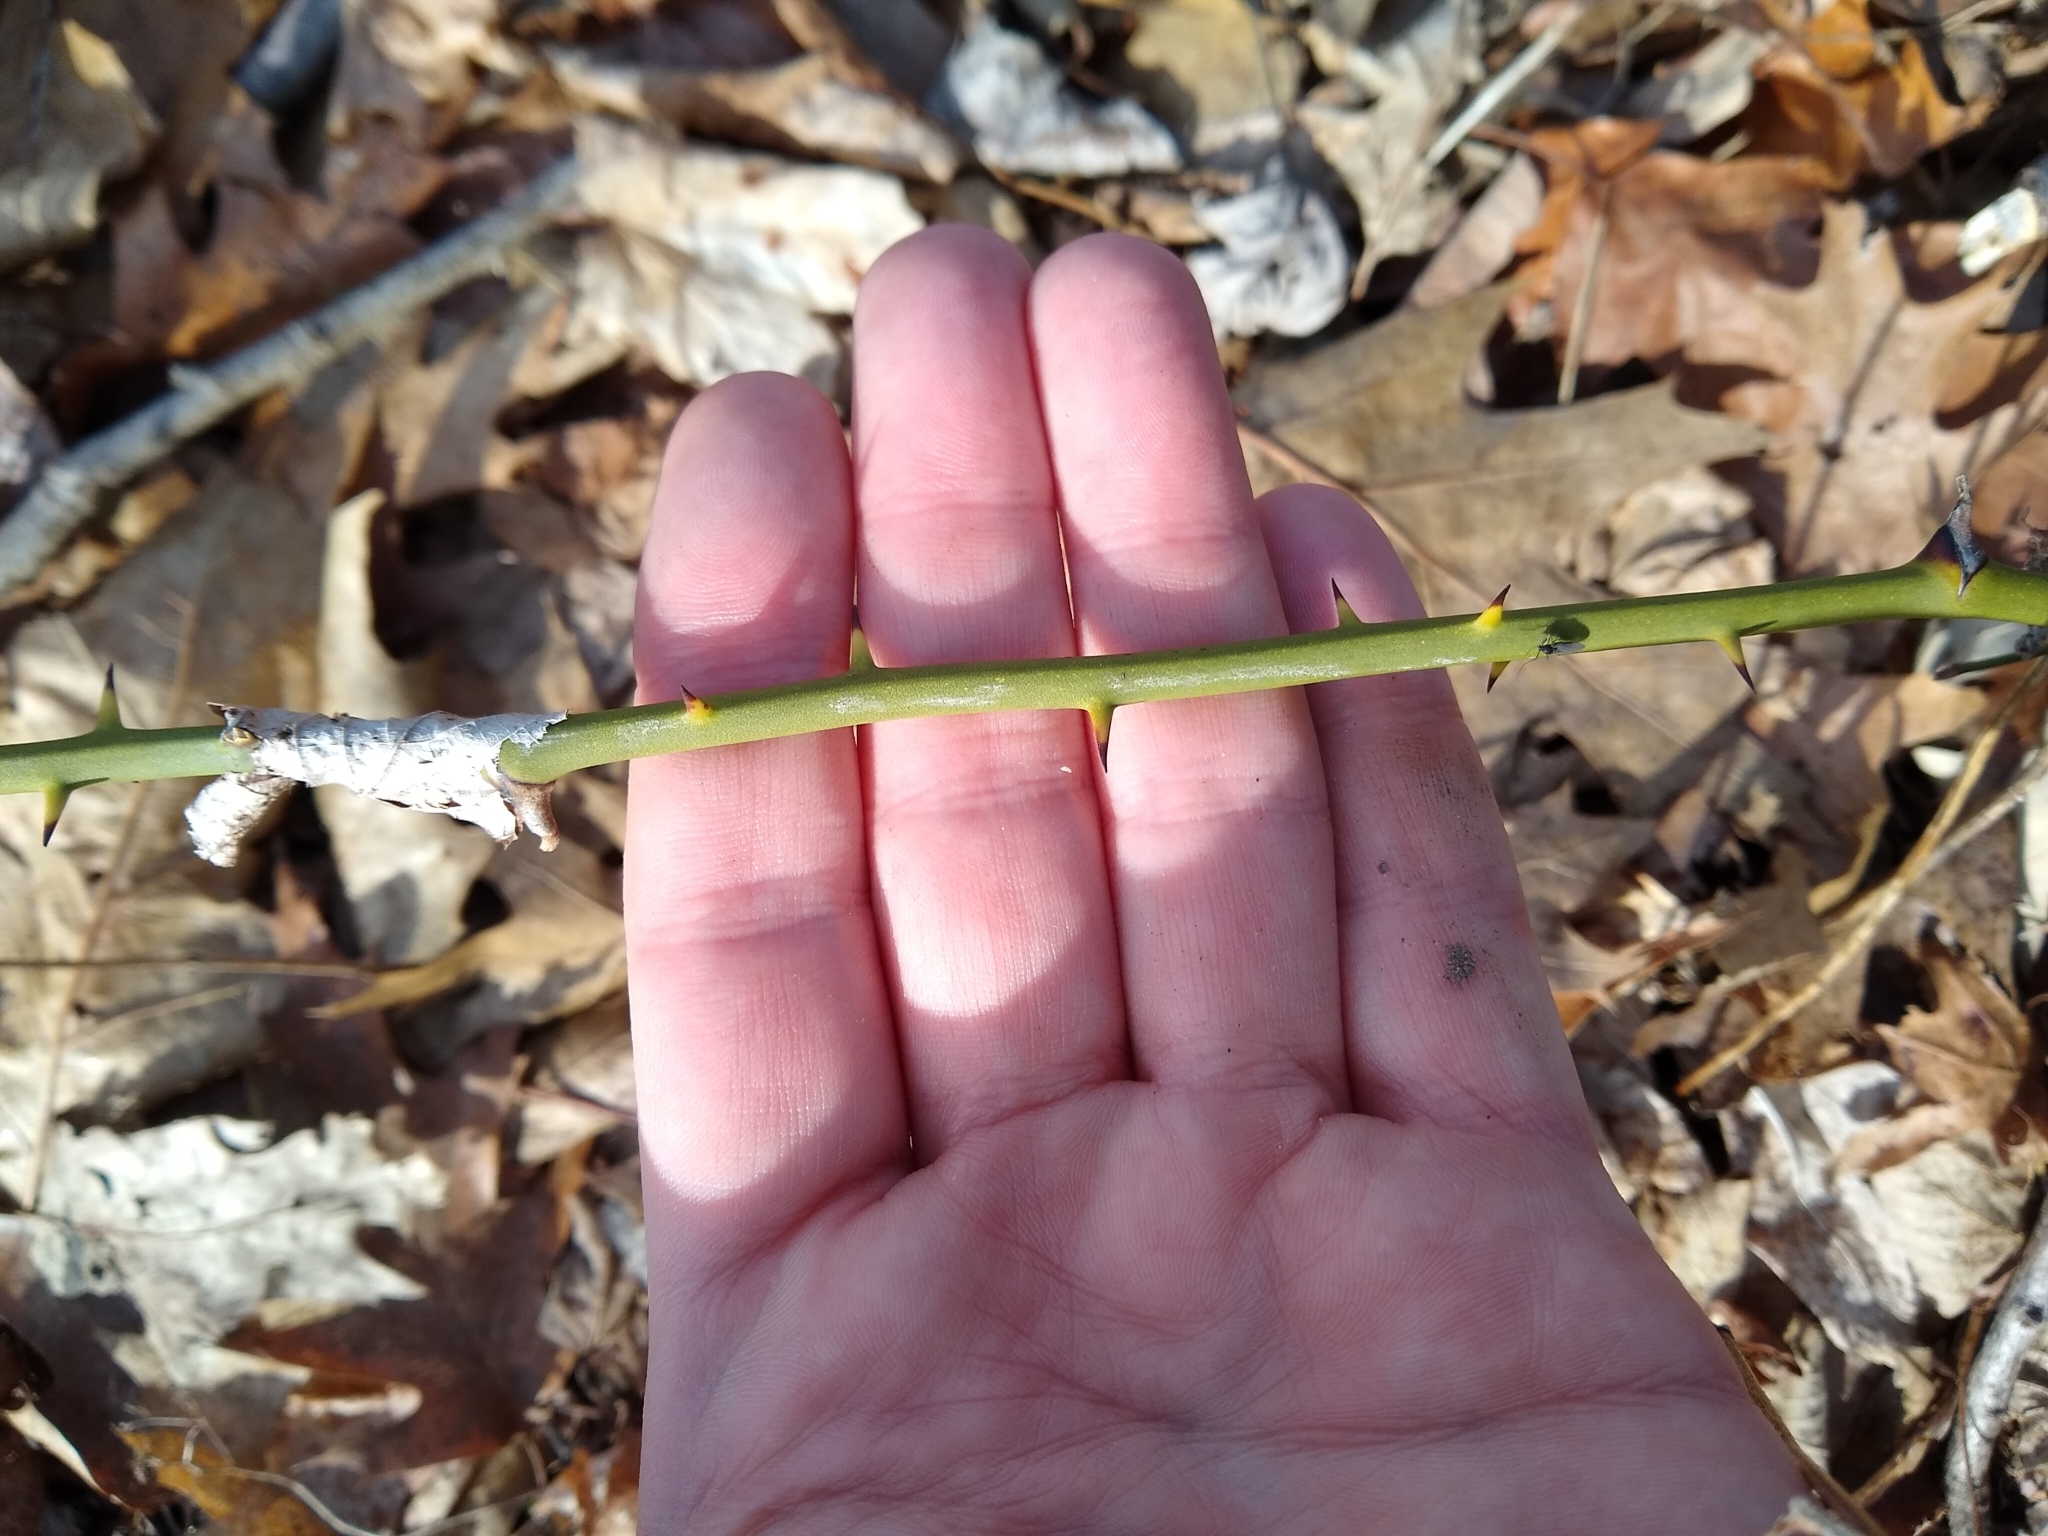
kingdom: Plantae
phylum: Tracheophyta
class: Liliopsida
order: Liliales
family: Smilacaceae
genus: Smilax
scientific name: Smilax rotundifolia
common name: Bullbriar
